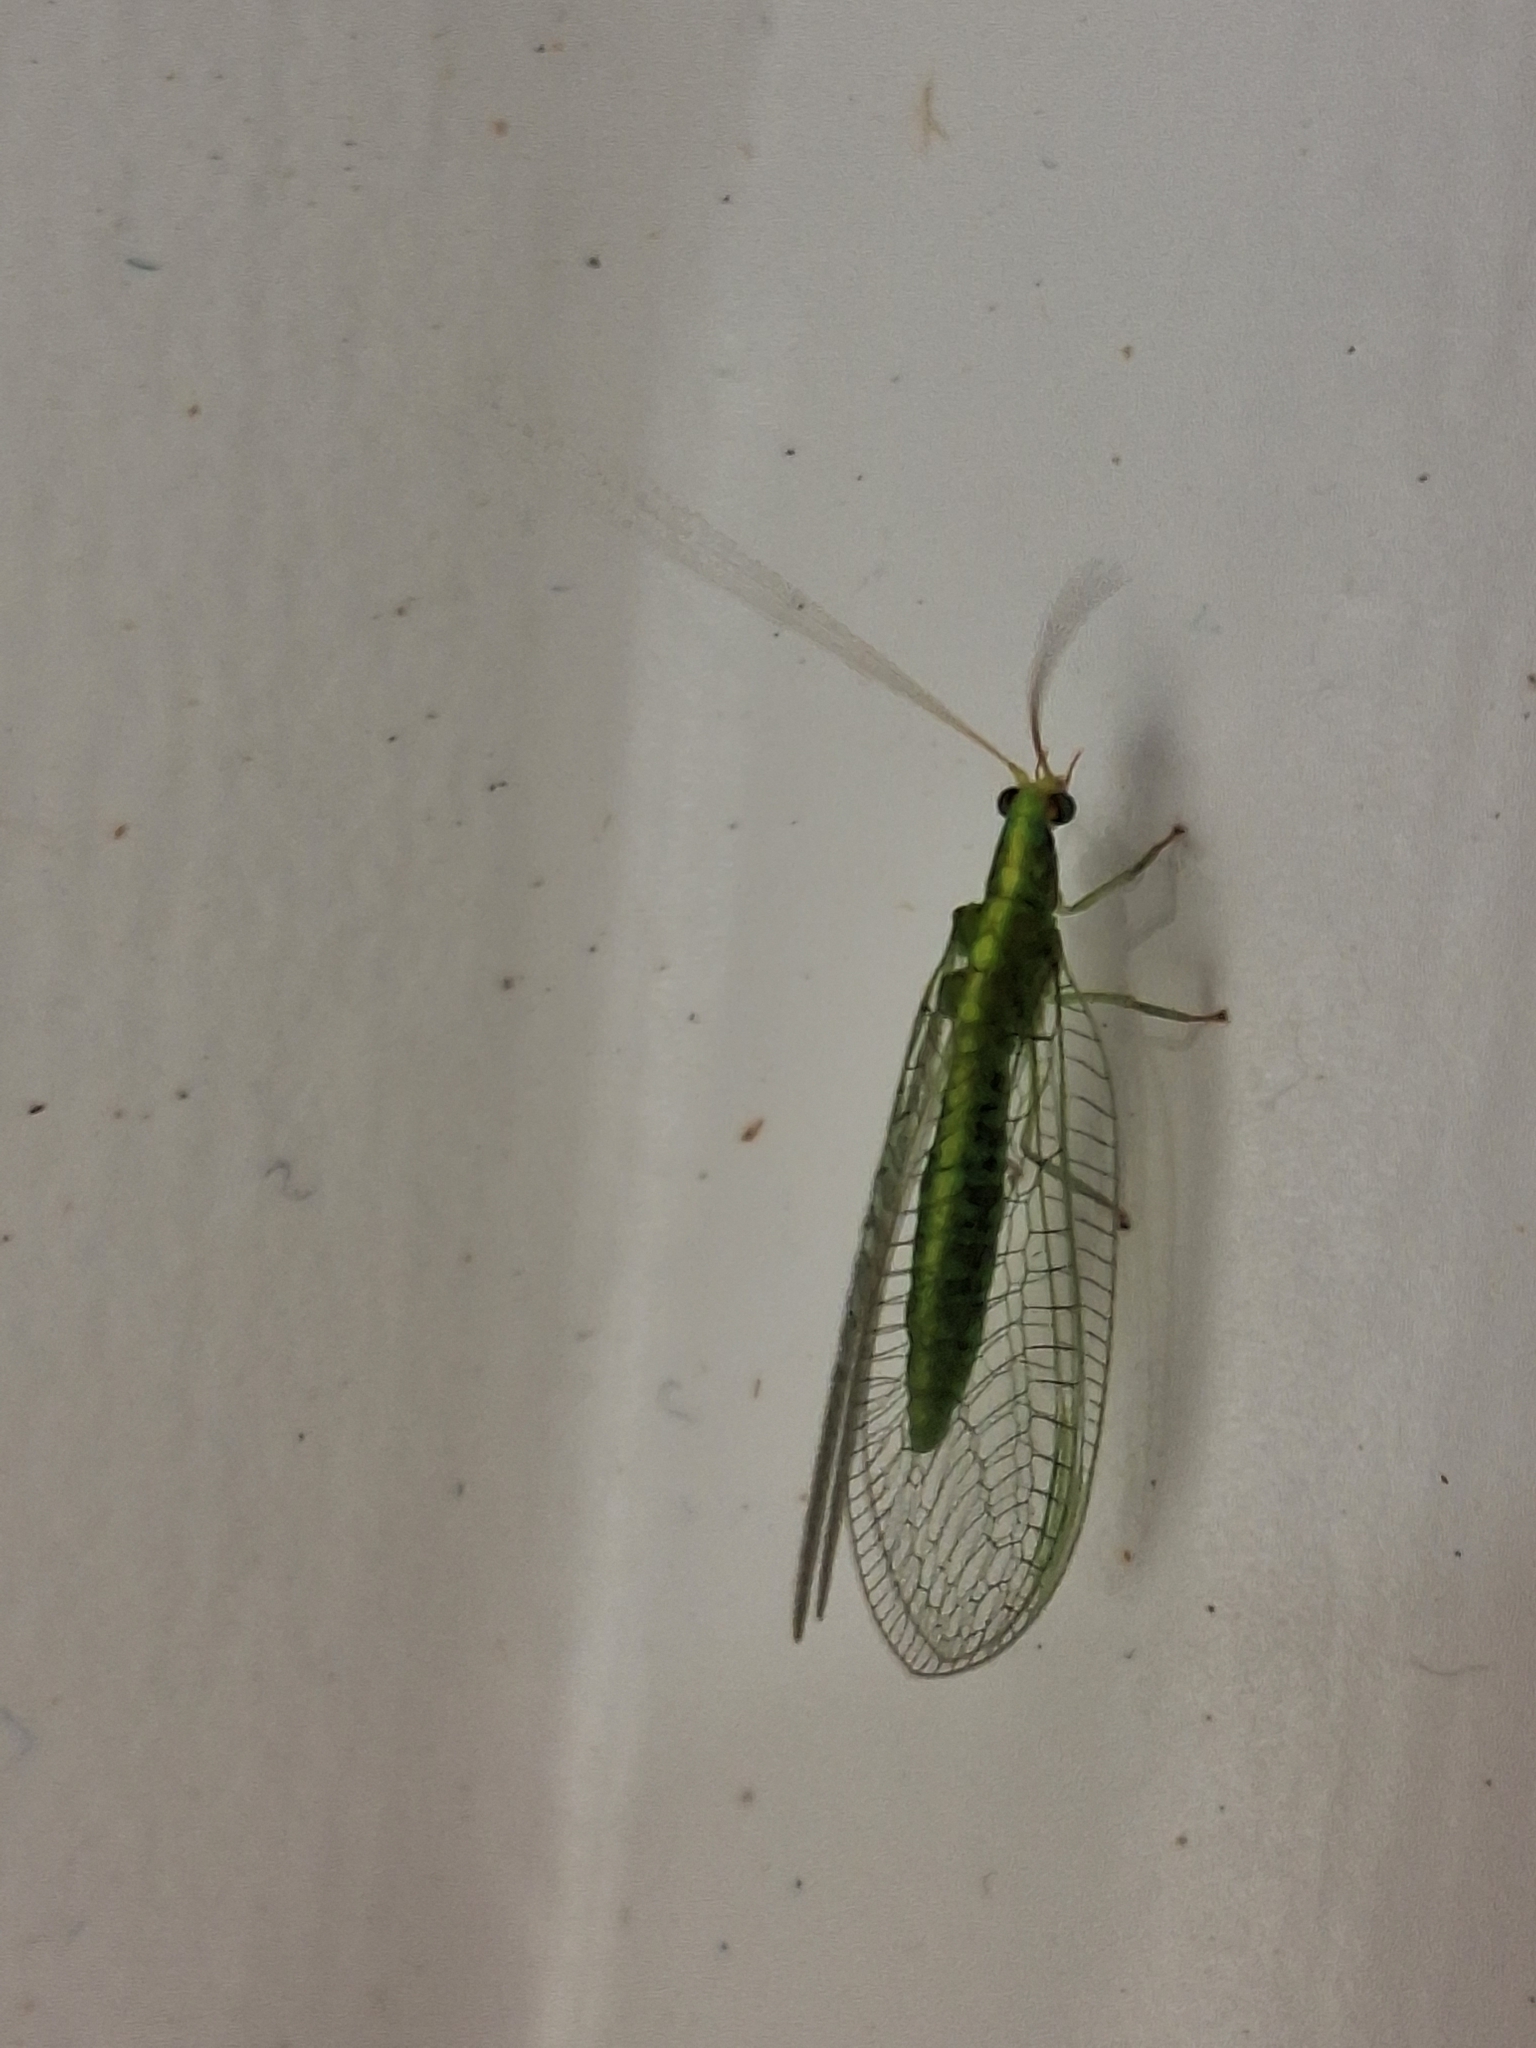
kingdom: Animalia
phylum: Arthropoda
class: Insecta
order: Neuroptera
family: Chrysopidae
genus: Mallada
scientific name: Mallada basalis
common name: Green lacewing
